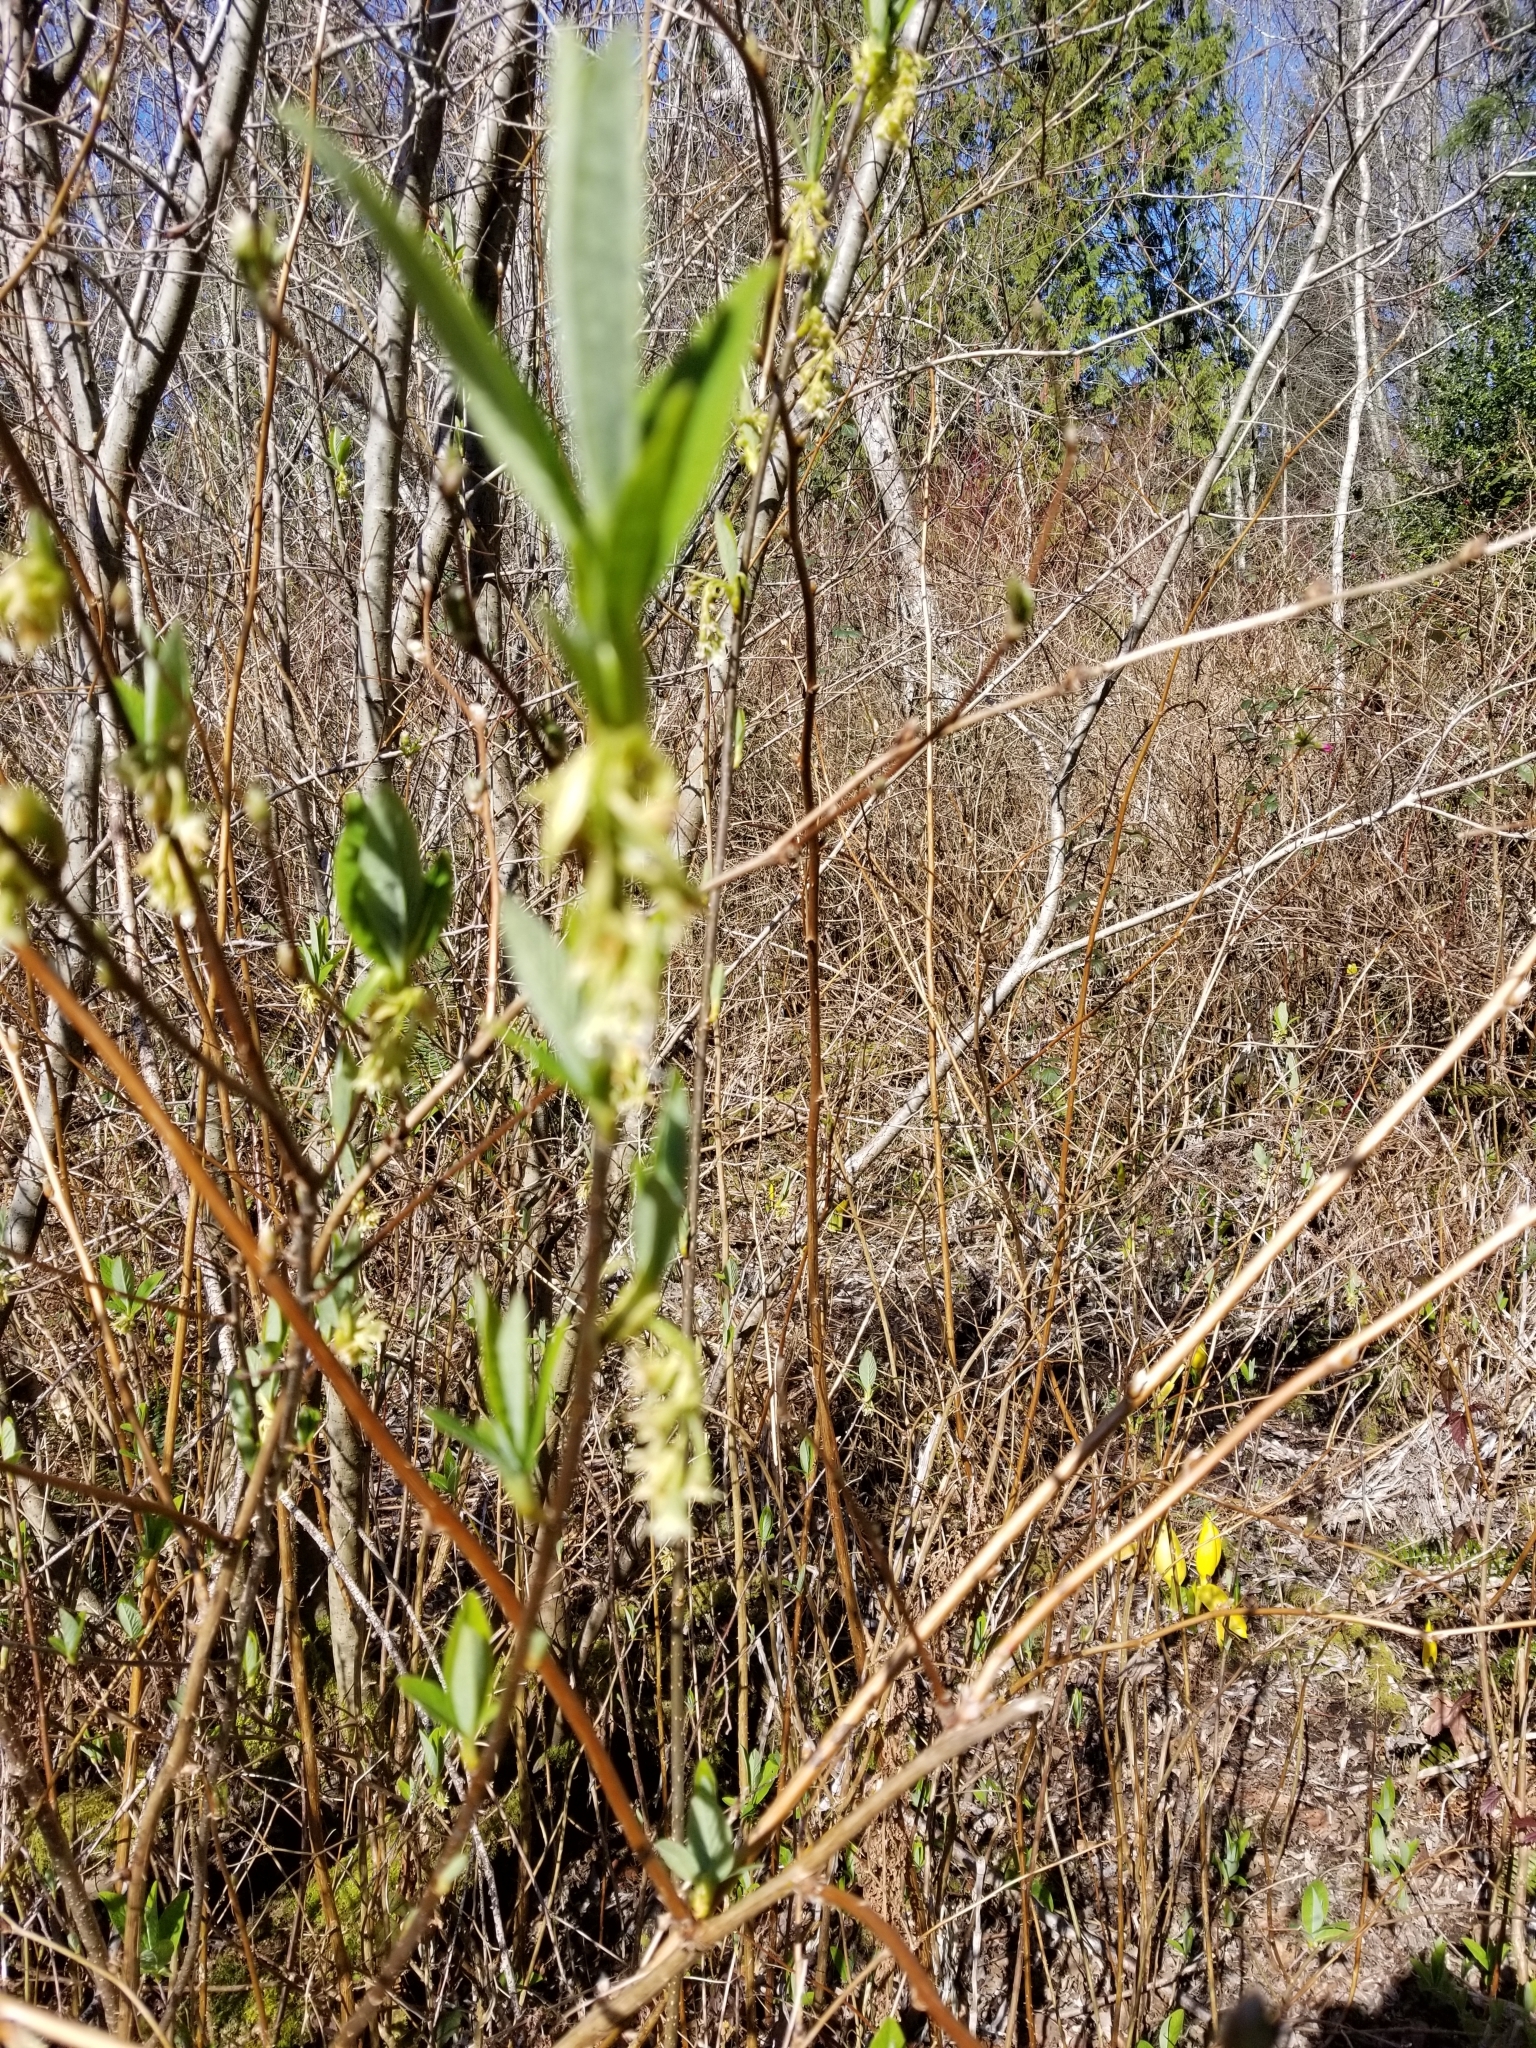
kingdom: Plantae
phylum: Tracheophyta
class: Magnoliopsida
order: Rosales
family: Rosaceae
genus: Oemleria
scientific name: Oemleria cerasiformis
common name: Osoberry
